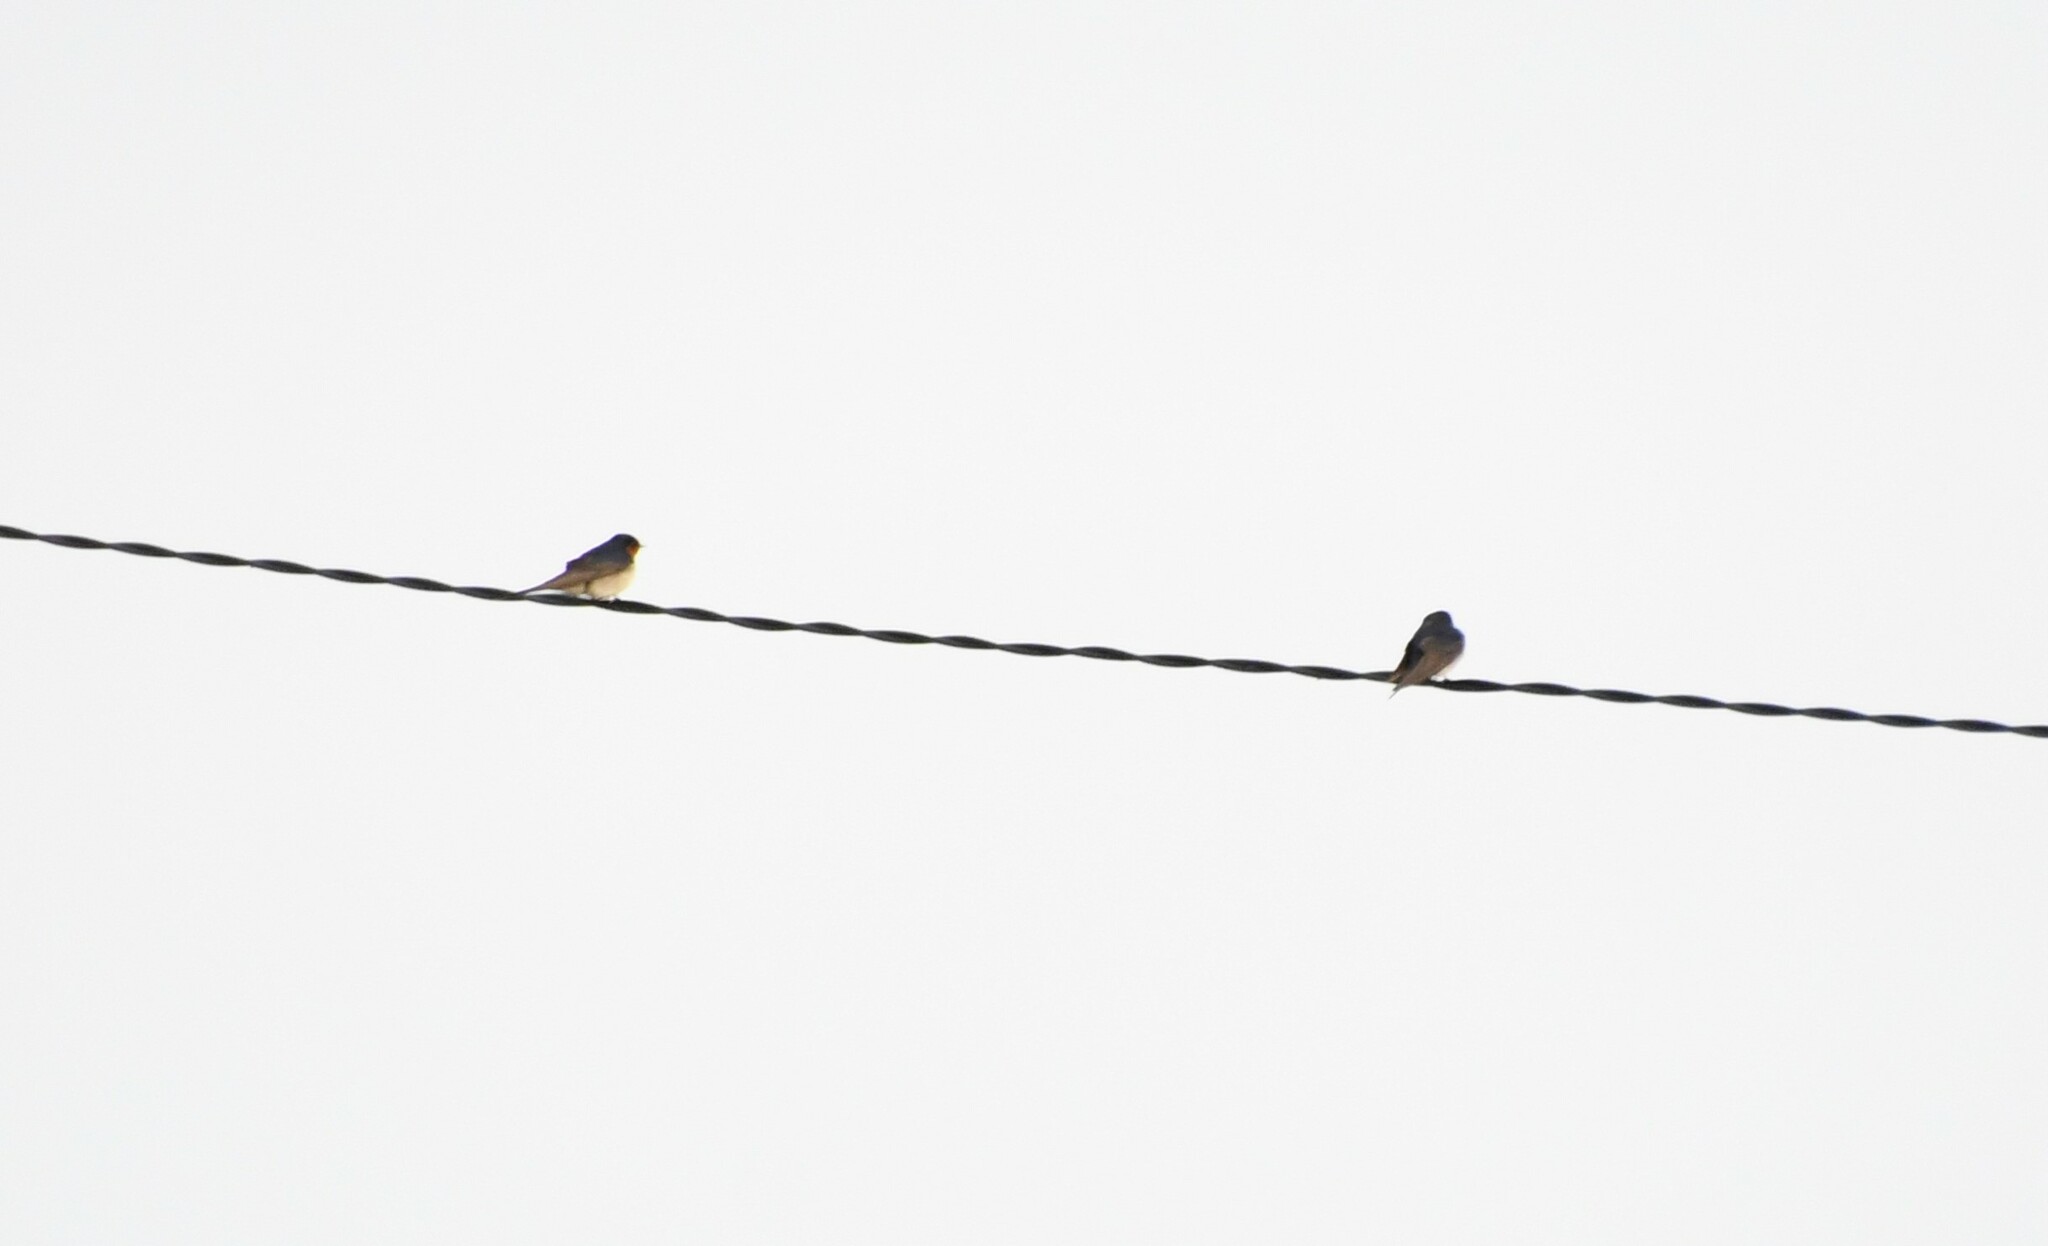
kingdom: Animalia
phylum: Chordata
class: Aves
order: Passeriformes
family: Hirundinidae
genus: Hirundo
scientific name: Hirundo neoxena
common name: Welcome swallow
